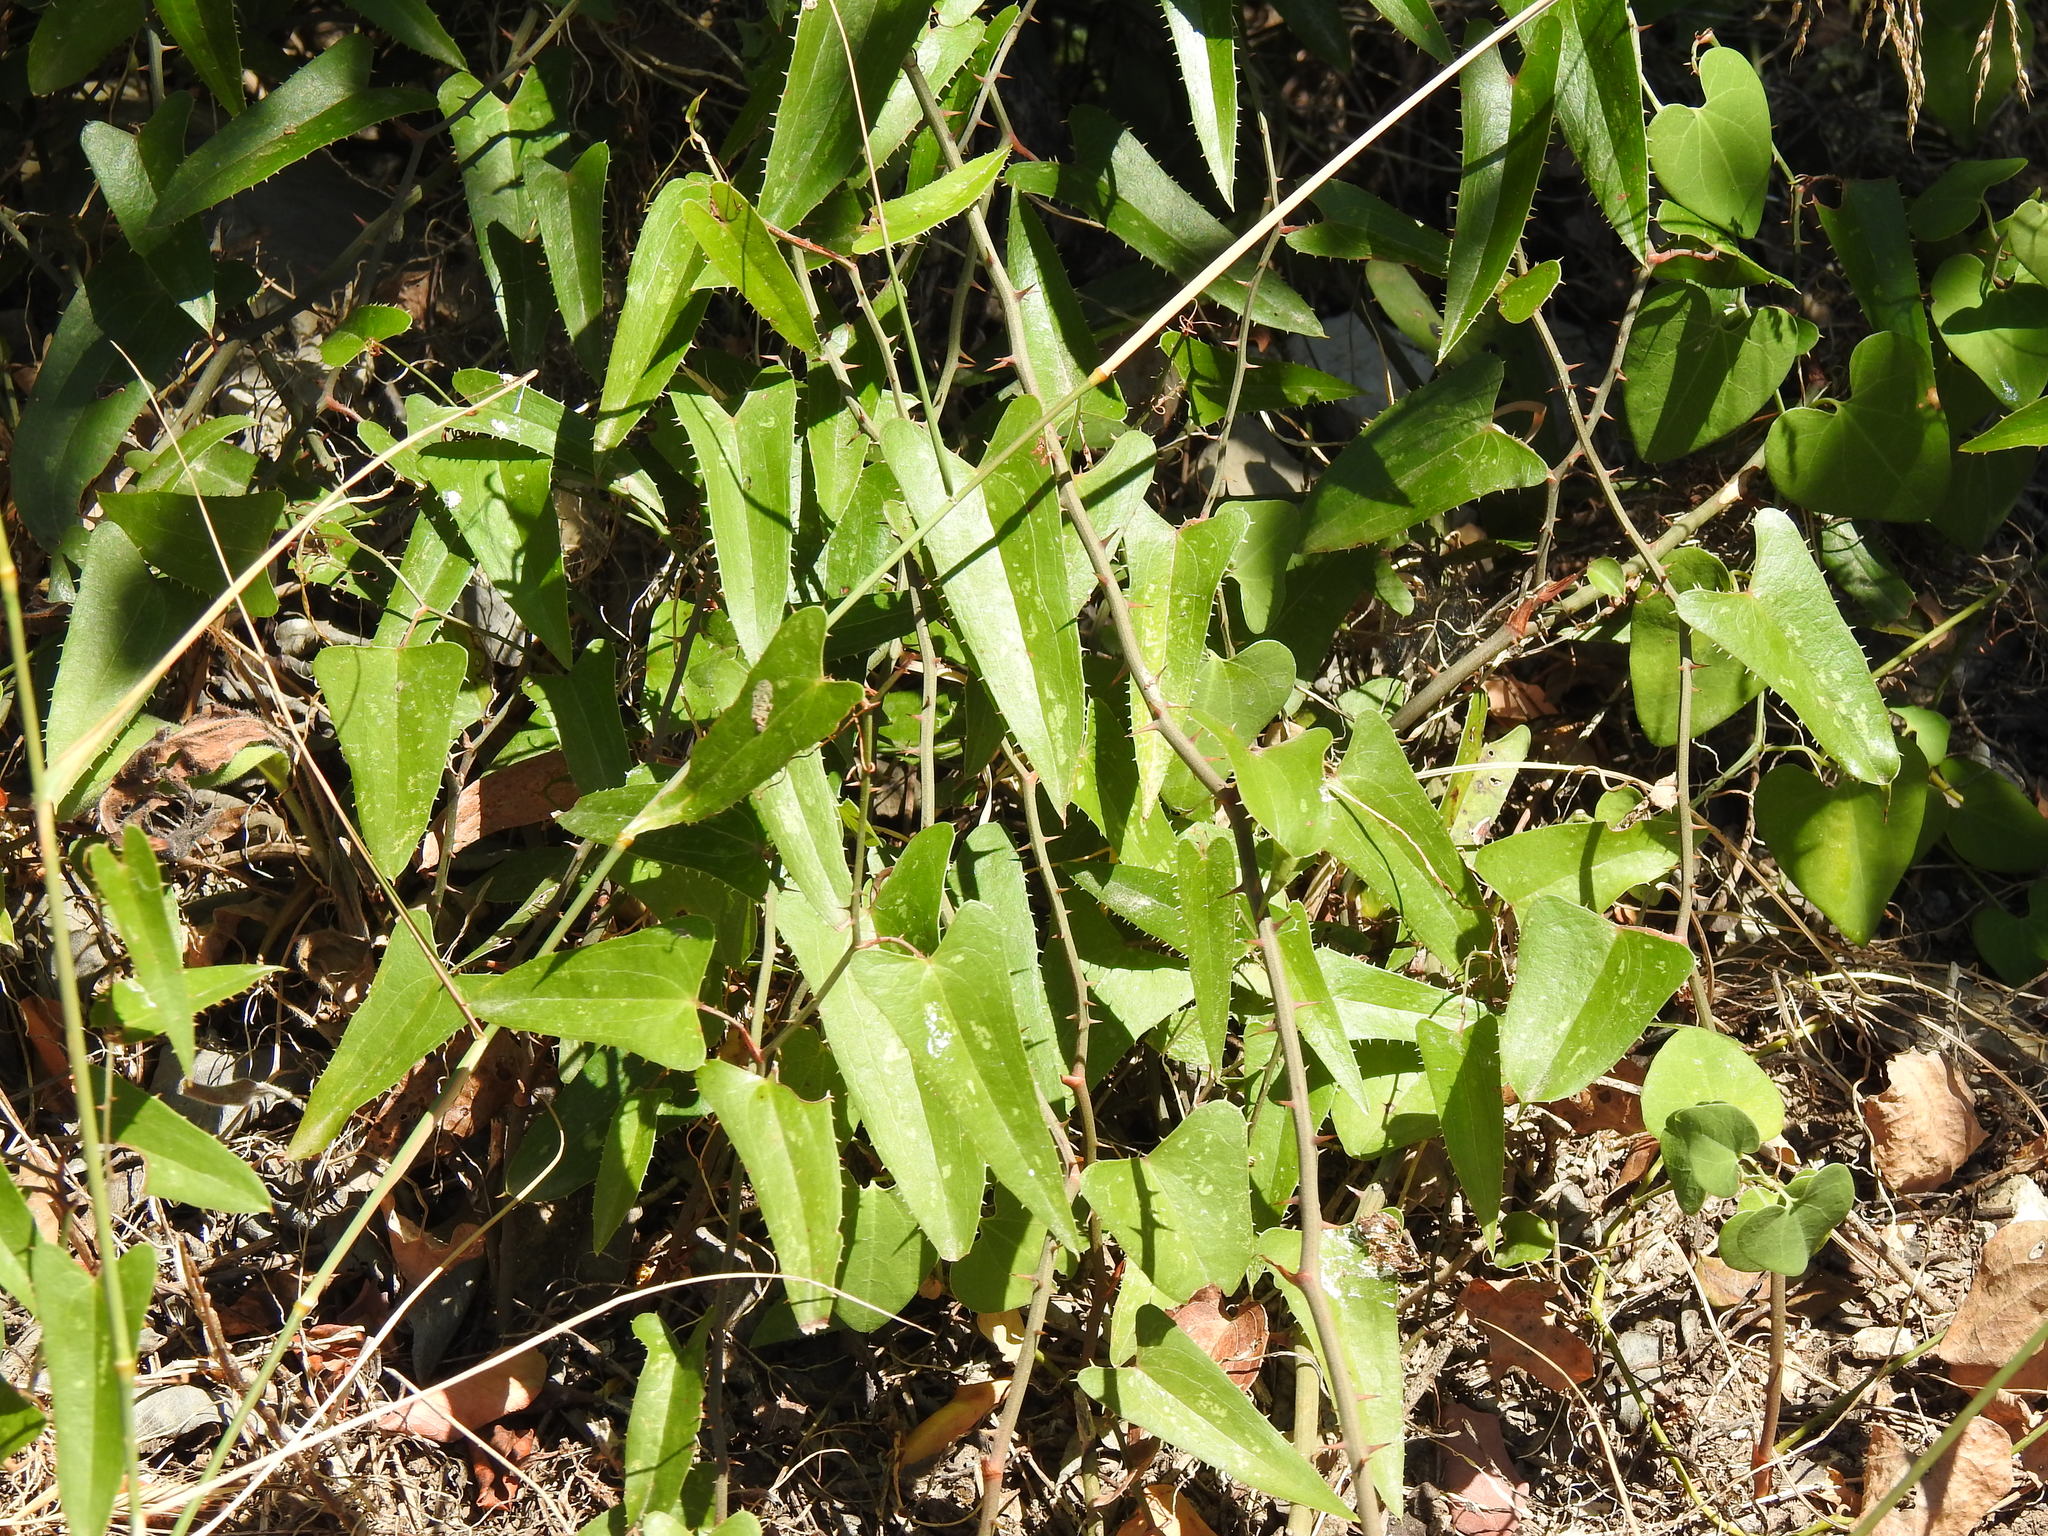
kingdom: Plantae
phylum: Tracheophyta
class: Liliopsida
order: Liliales
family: Smilacaceae
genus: Smilax
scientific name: Smilax aspera
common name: Common smilax
